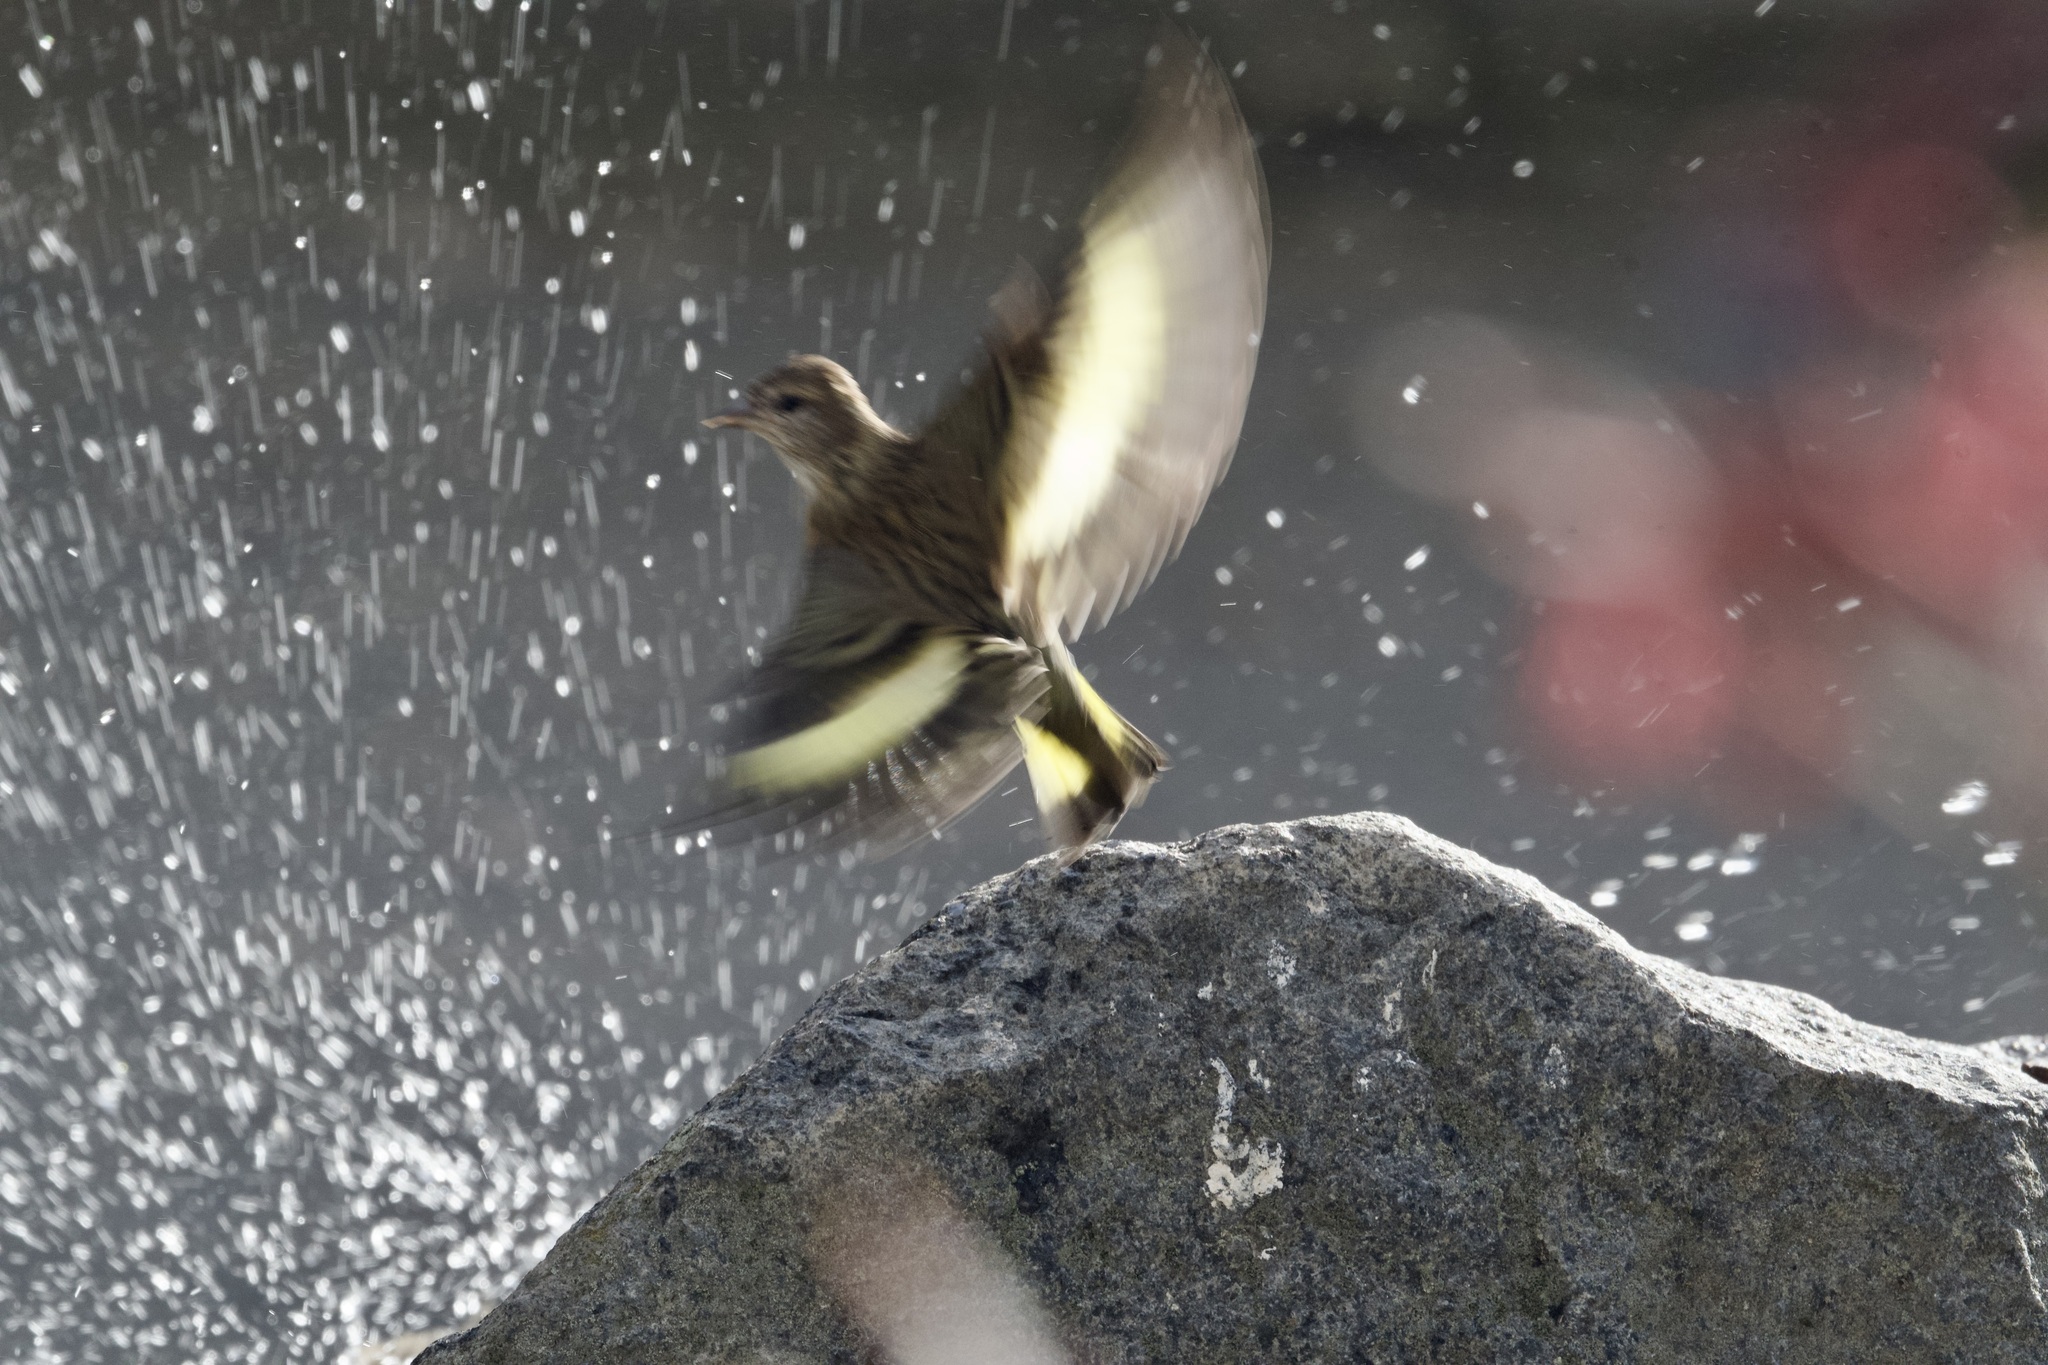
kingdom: Animalia
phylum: Chordata
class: Aves
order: Passeriformes
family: Fringillidae
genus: Spinus
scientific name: Spinus pinus
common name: Pine siskin
